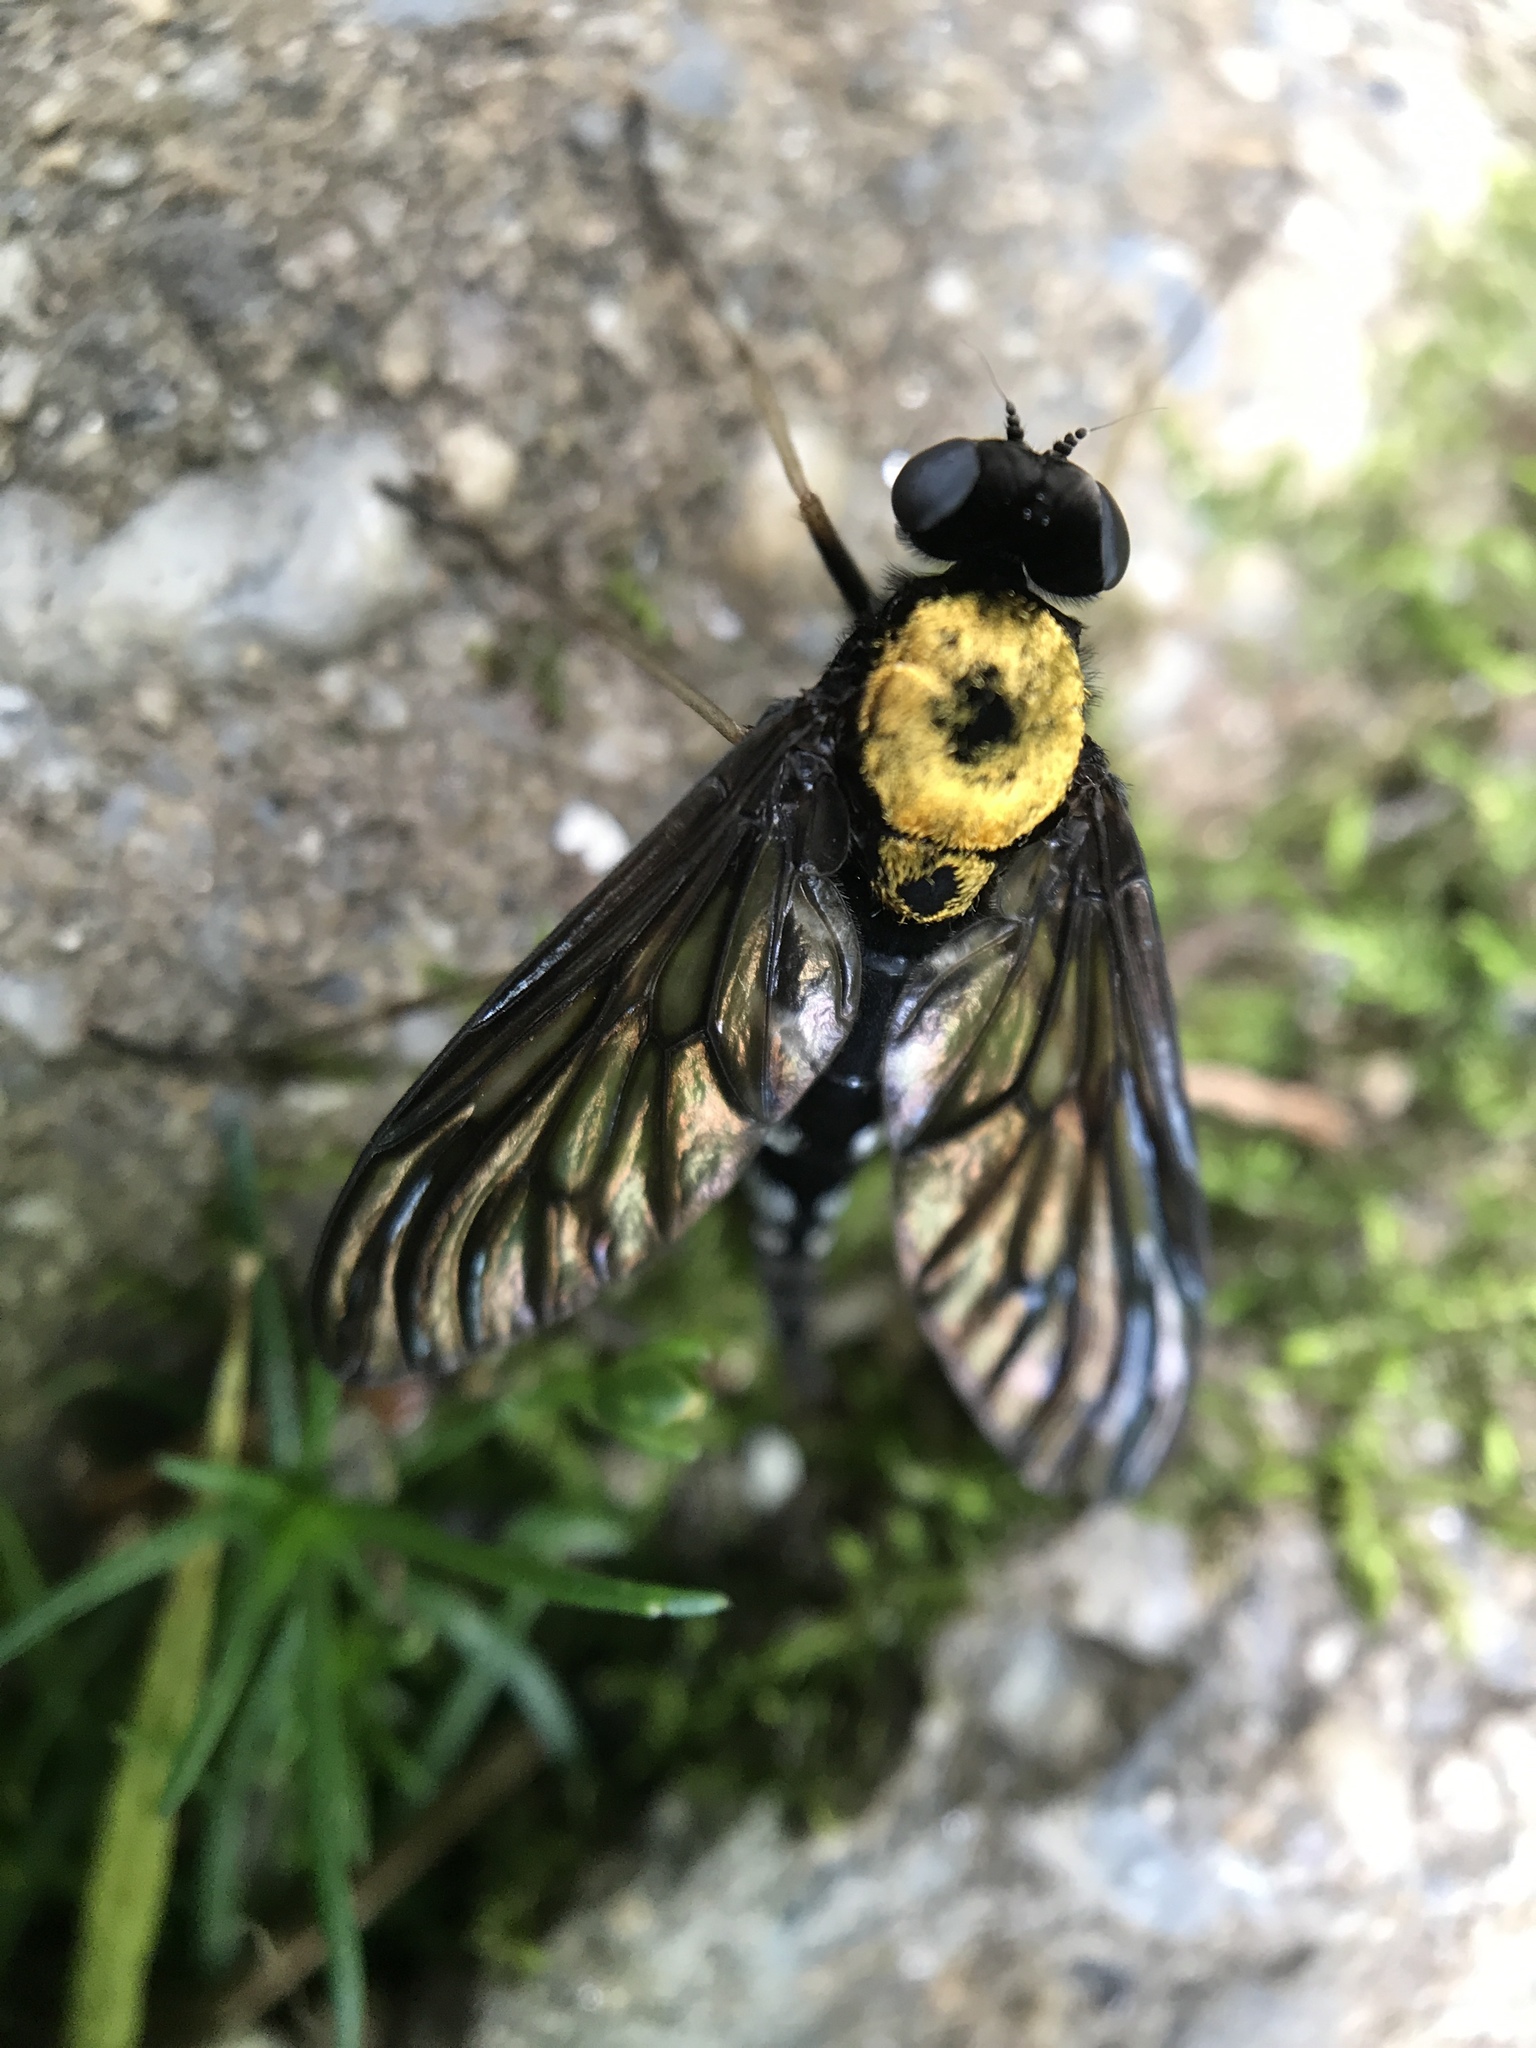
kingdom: Animalia
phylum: Arthropoda
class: Insecta
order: Diptera
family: Rhagionidae
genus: Chrysopilus
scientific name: Chrysopilus thoracicus
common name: Golden-backed snipe fly
